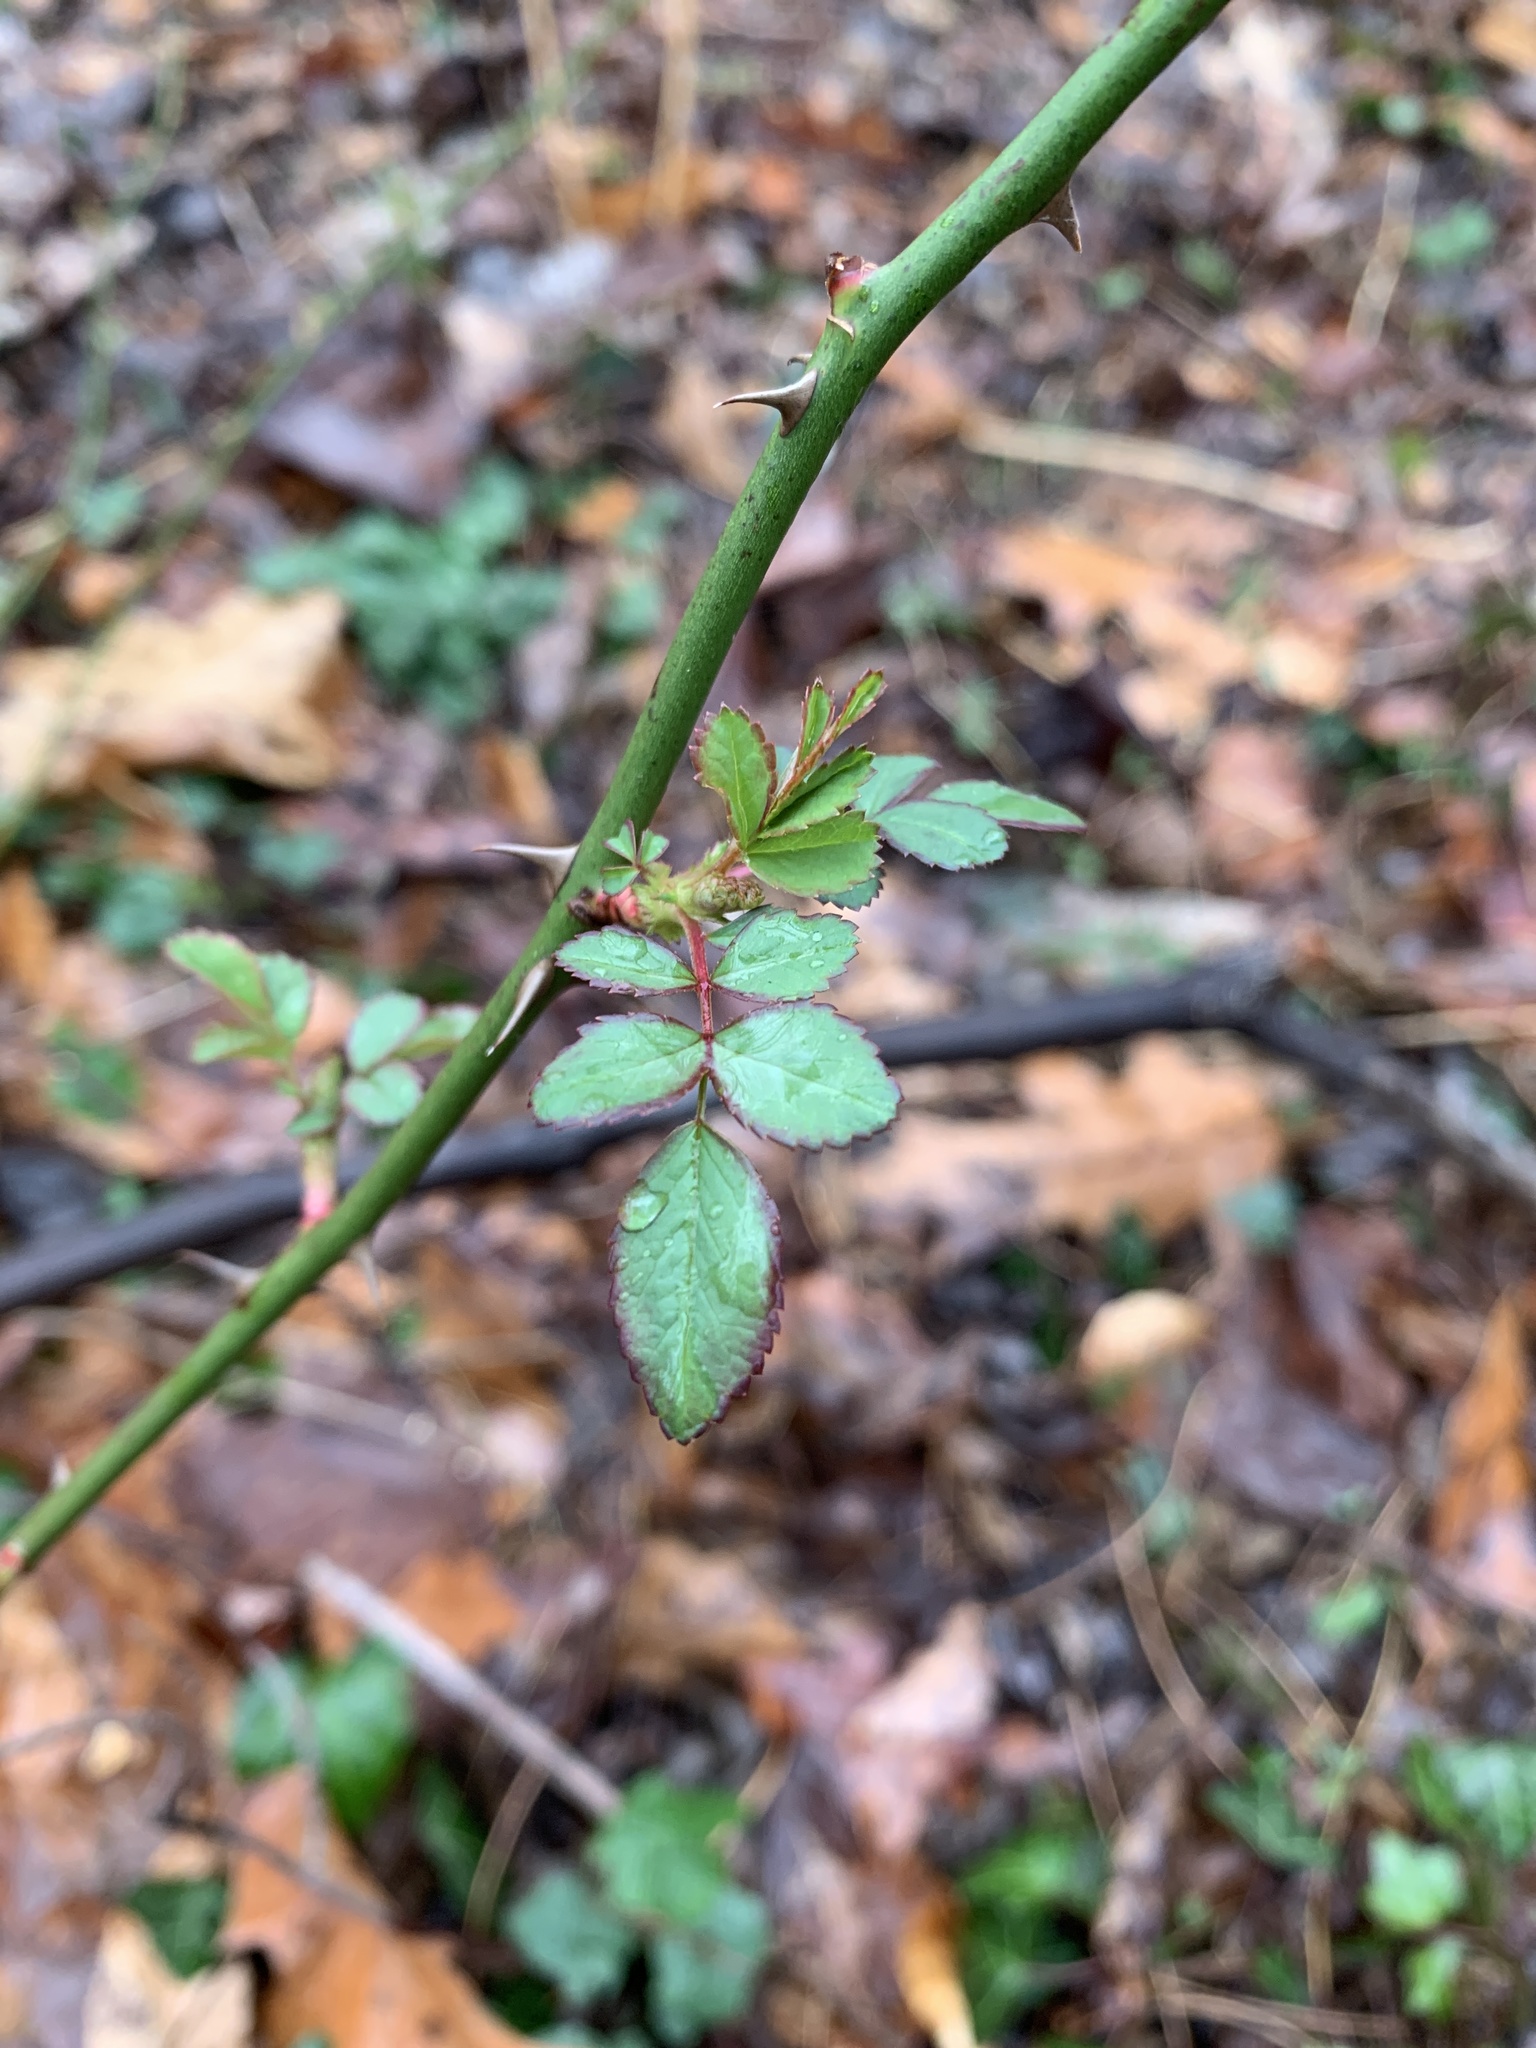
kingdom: Plantae
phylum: Tracheophyta
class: Magnoliopsida
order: Rosales
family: Rosaceae
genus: Rosa
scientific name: Rosa multiflora
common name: Multiflora rose
